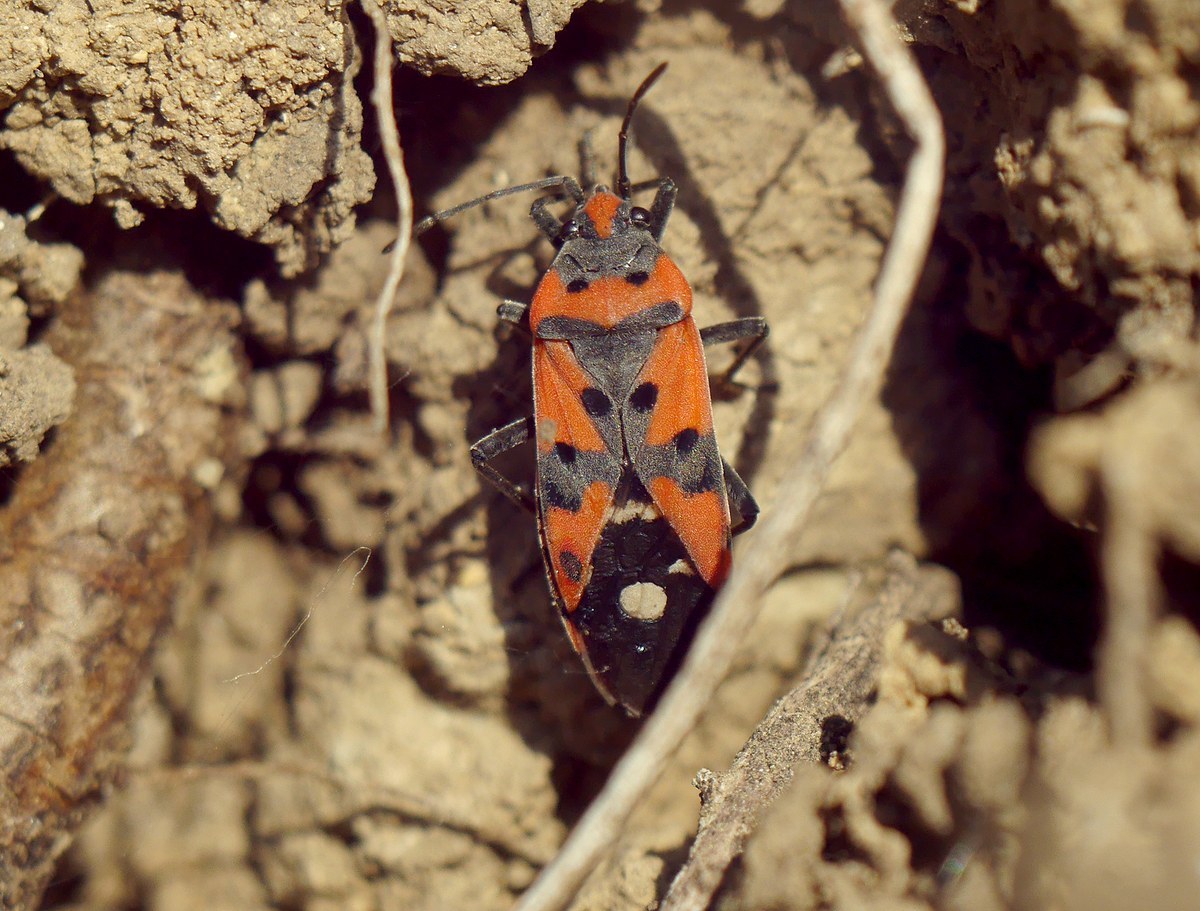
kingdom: Animalia
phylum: Arthropoda
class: Insecta
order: Hemiptera
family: Lygaeidae
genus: Lygaeus
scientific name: Lygaeus equestris
